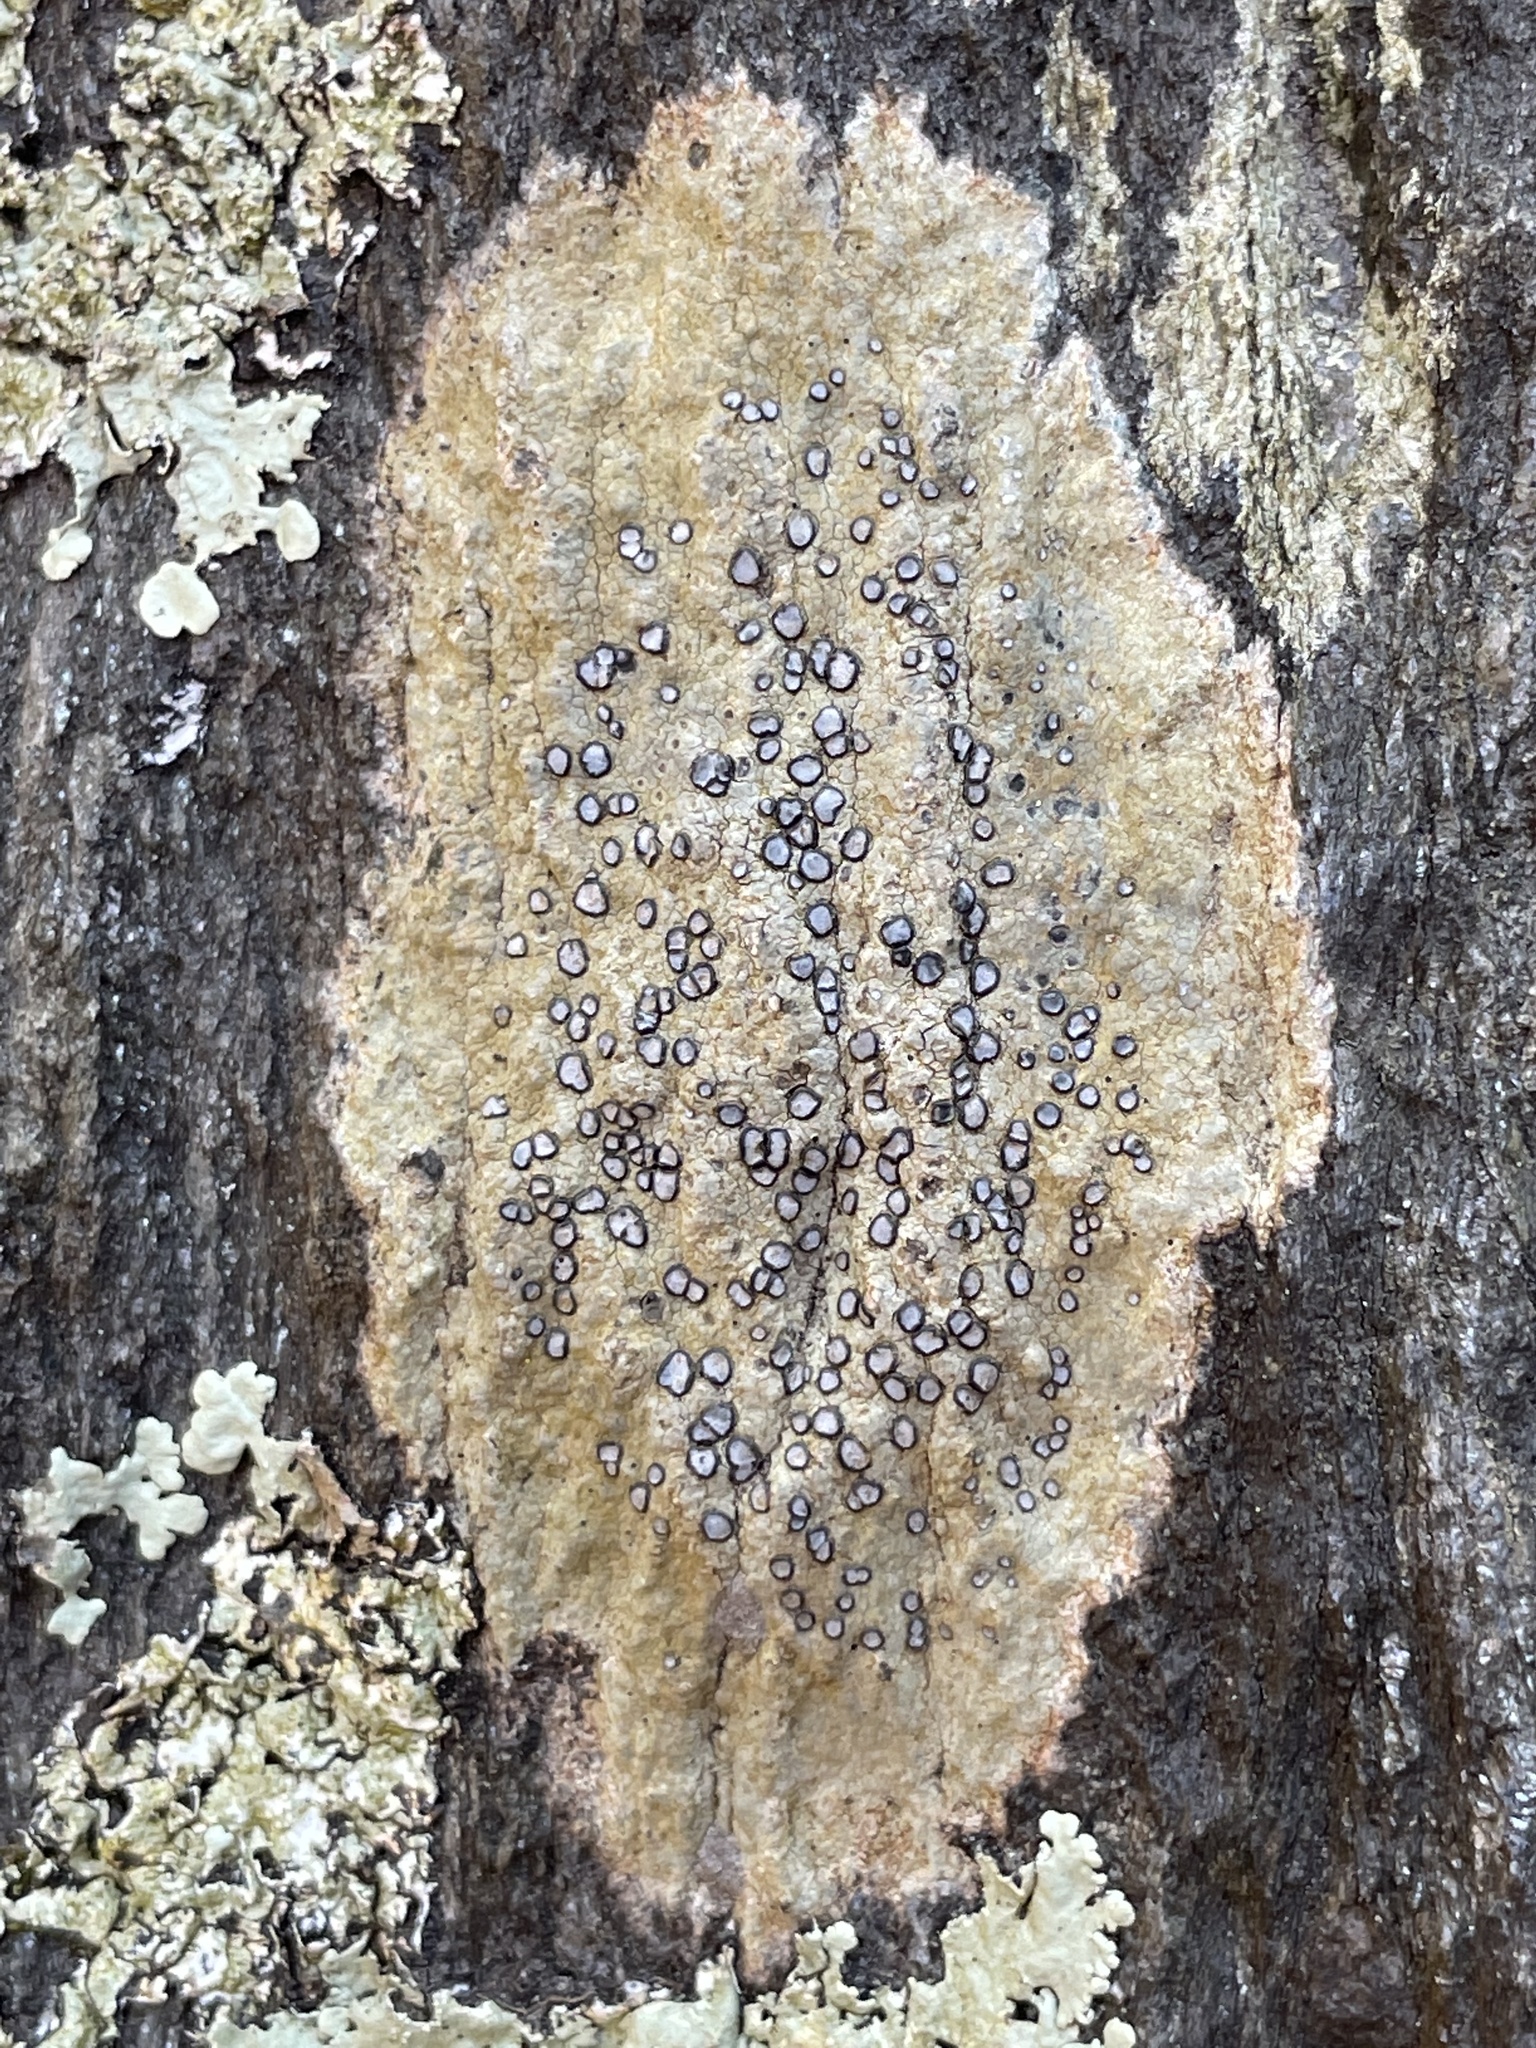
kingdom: Fungi
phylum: Ascomycota
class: Lecanoromycetes
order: Lecideales
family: Lecideaceae
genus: Porpidia
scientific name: Porpidia albocaerulescens
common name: Smokey-eyed boulder lichen
